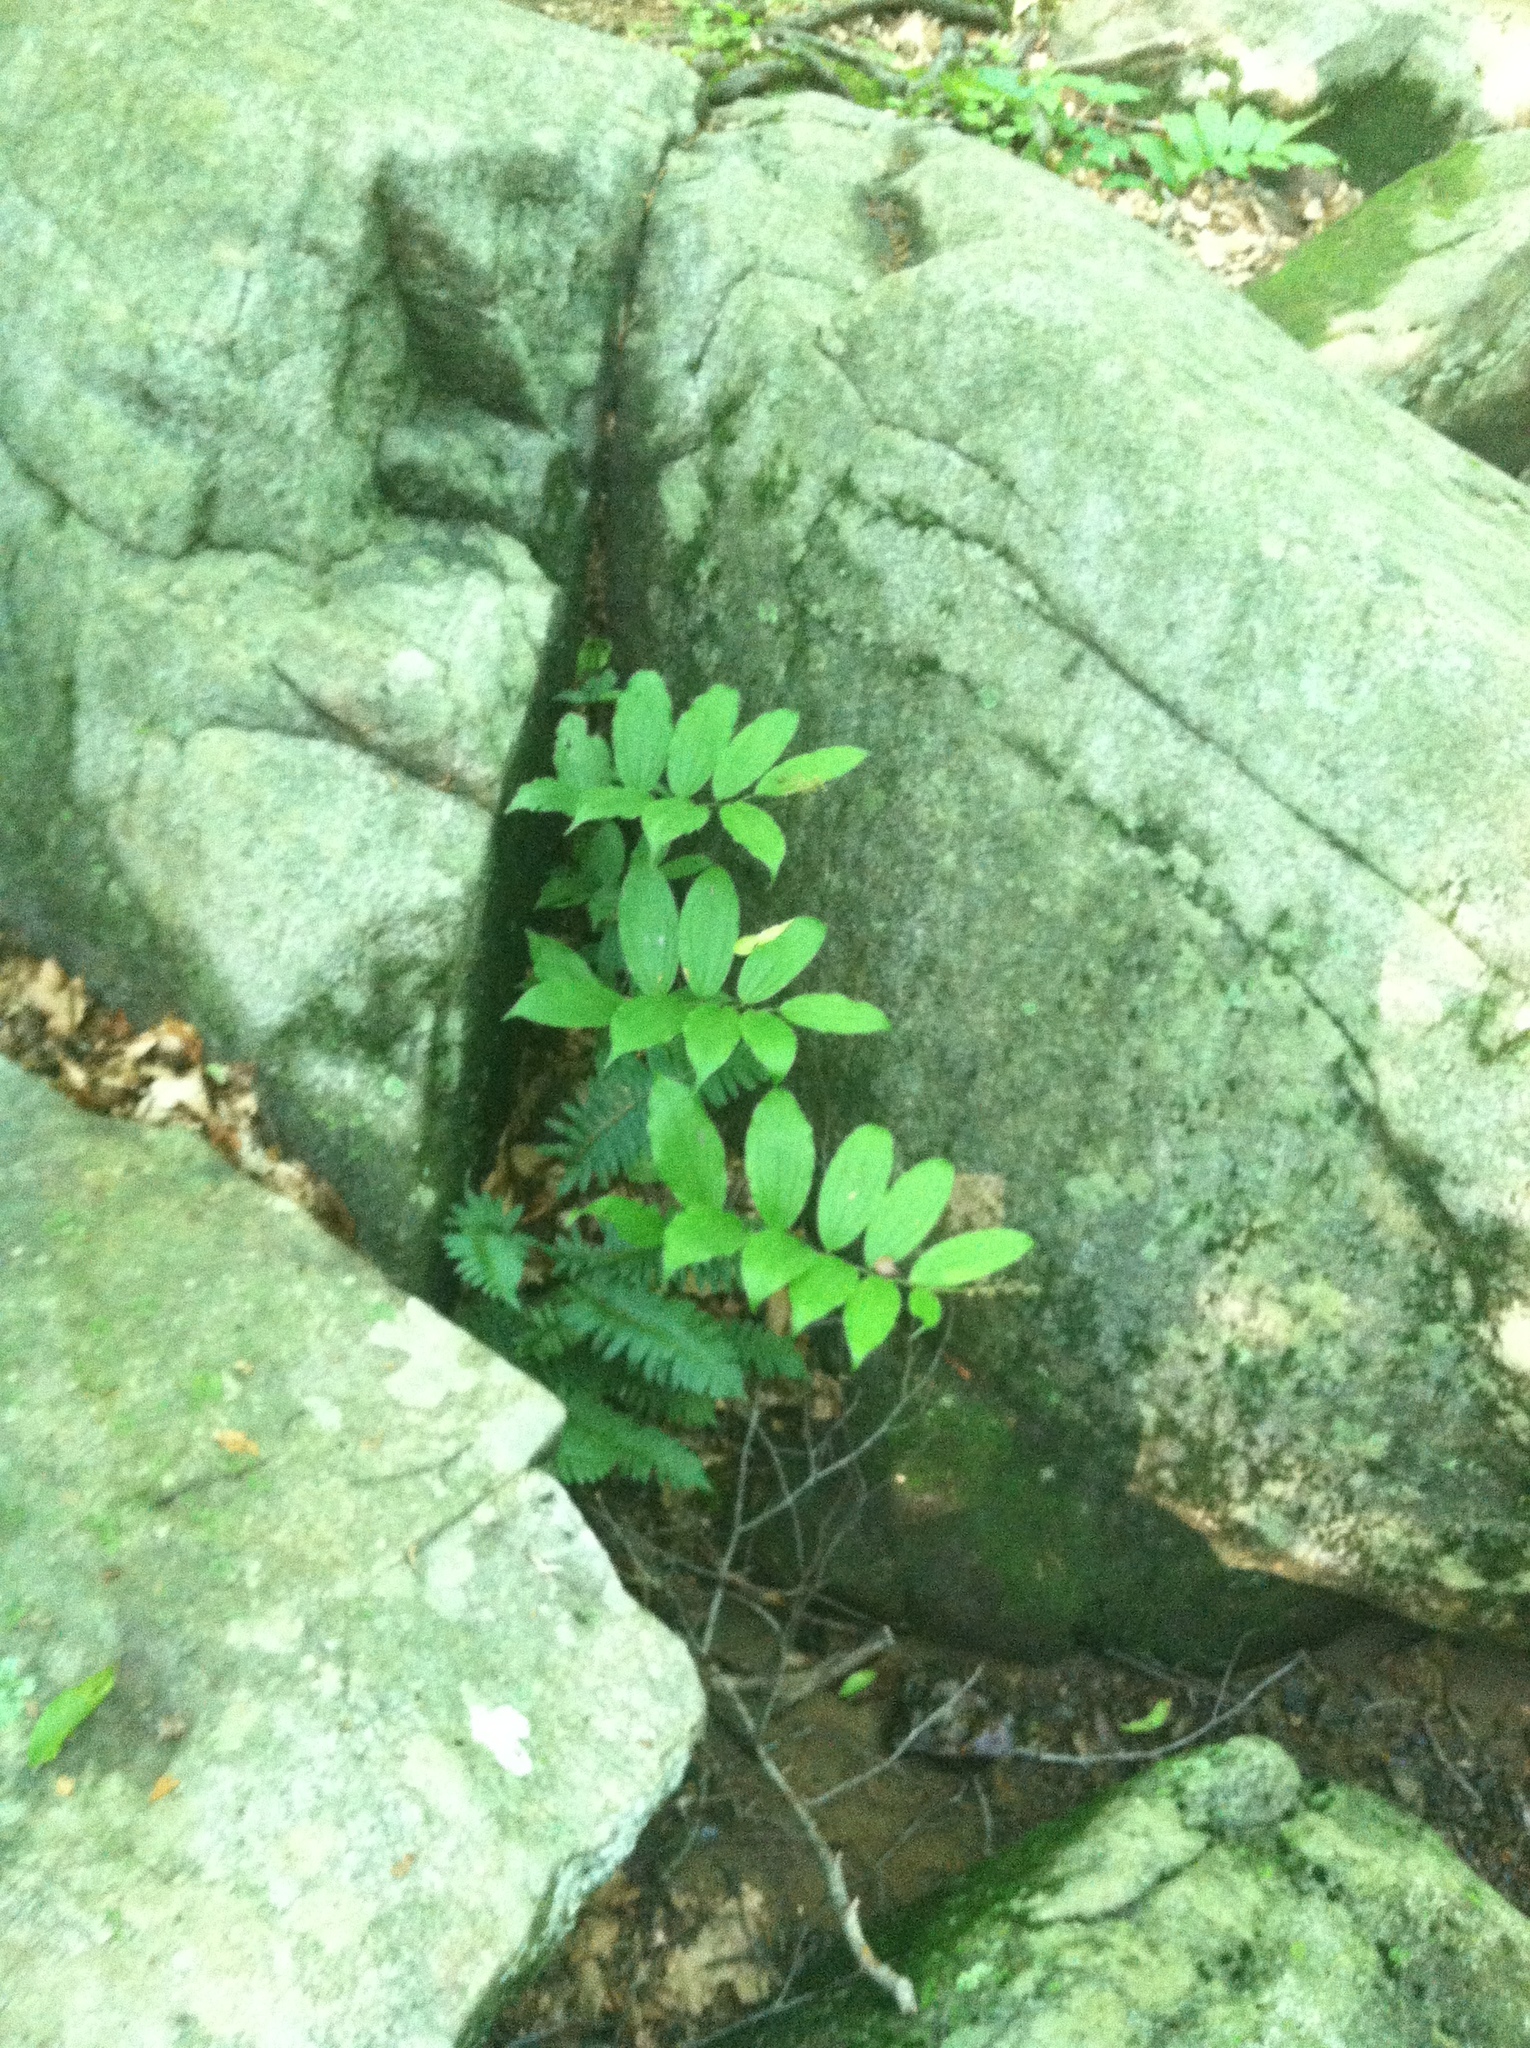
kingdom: Plantae
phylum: Tracheophyta
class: Liliopsida
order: Asparagales
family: Asparagaceae
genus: Maianthemum
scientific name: Maianthemum racemosum
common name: False spikenard
